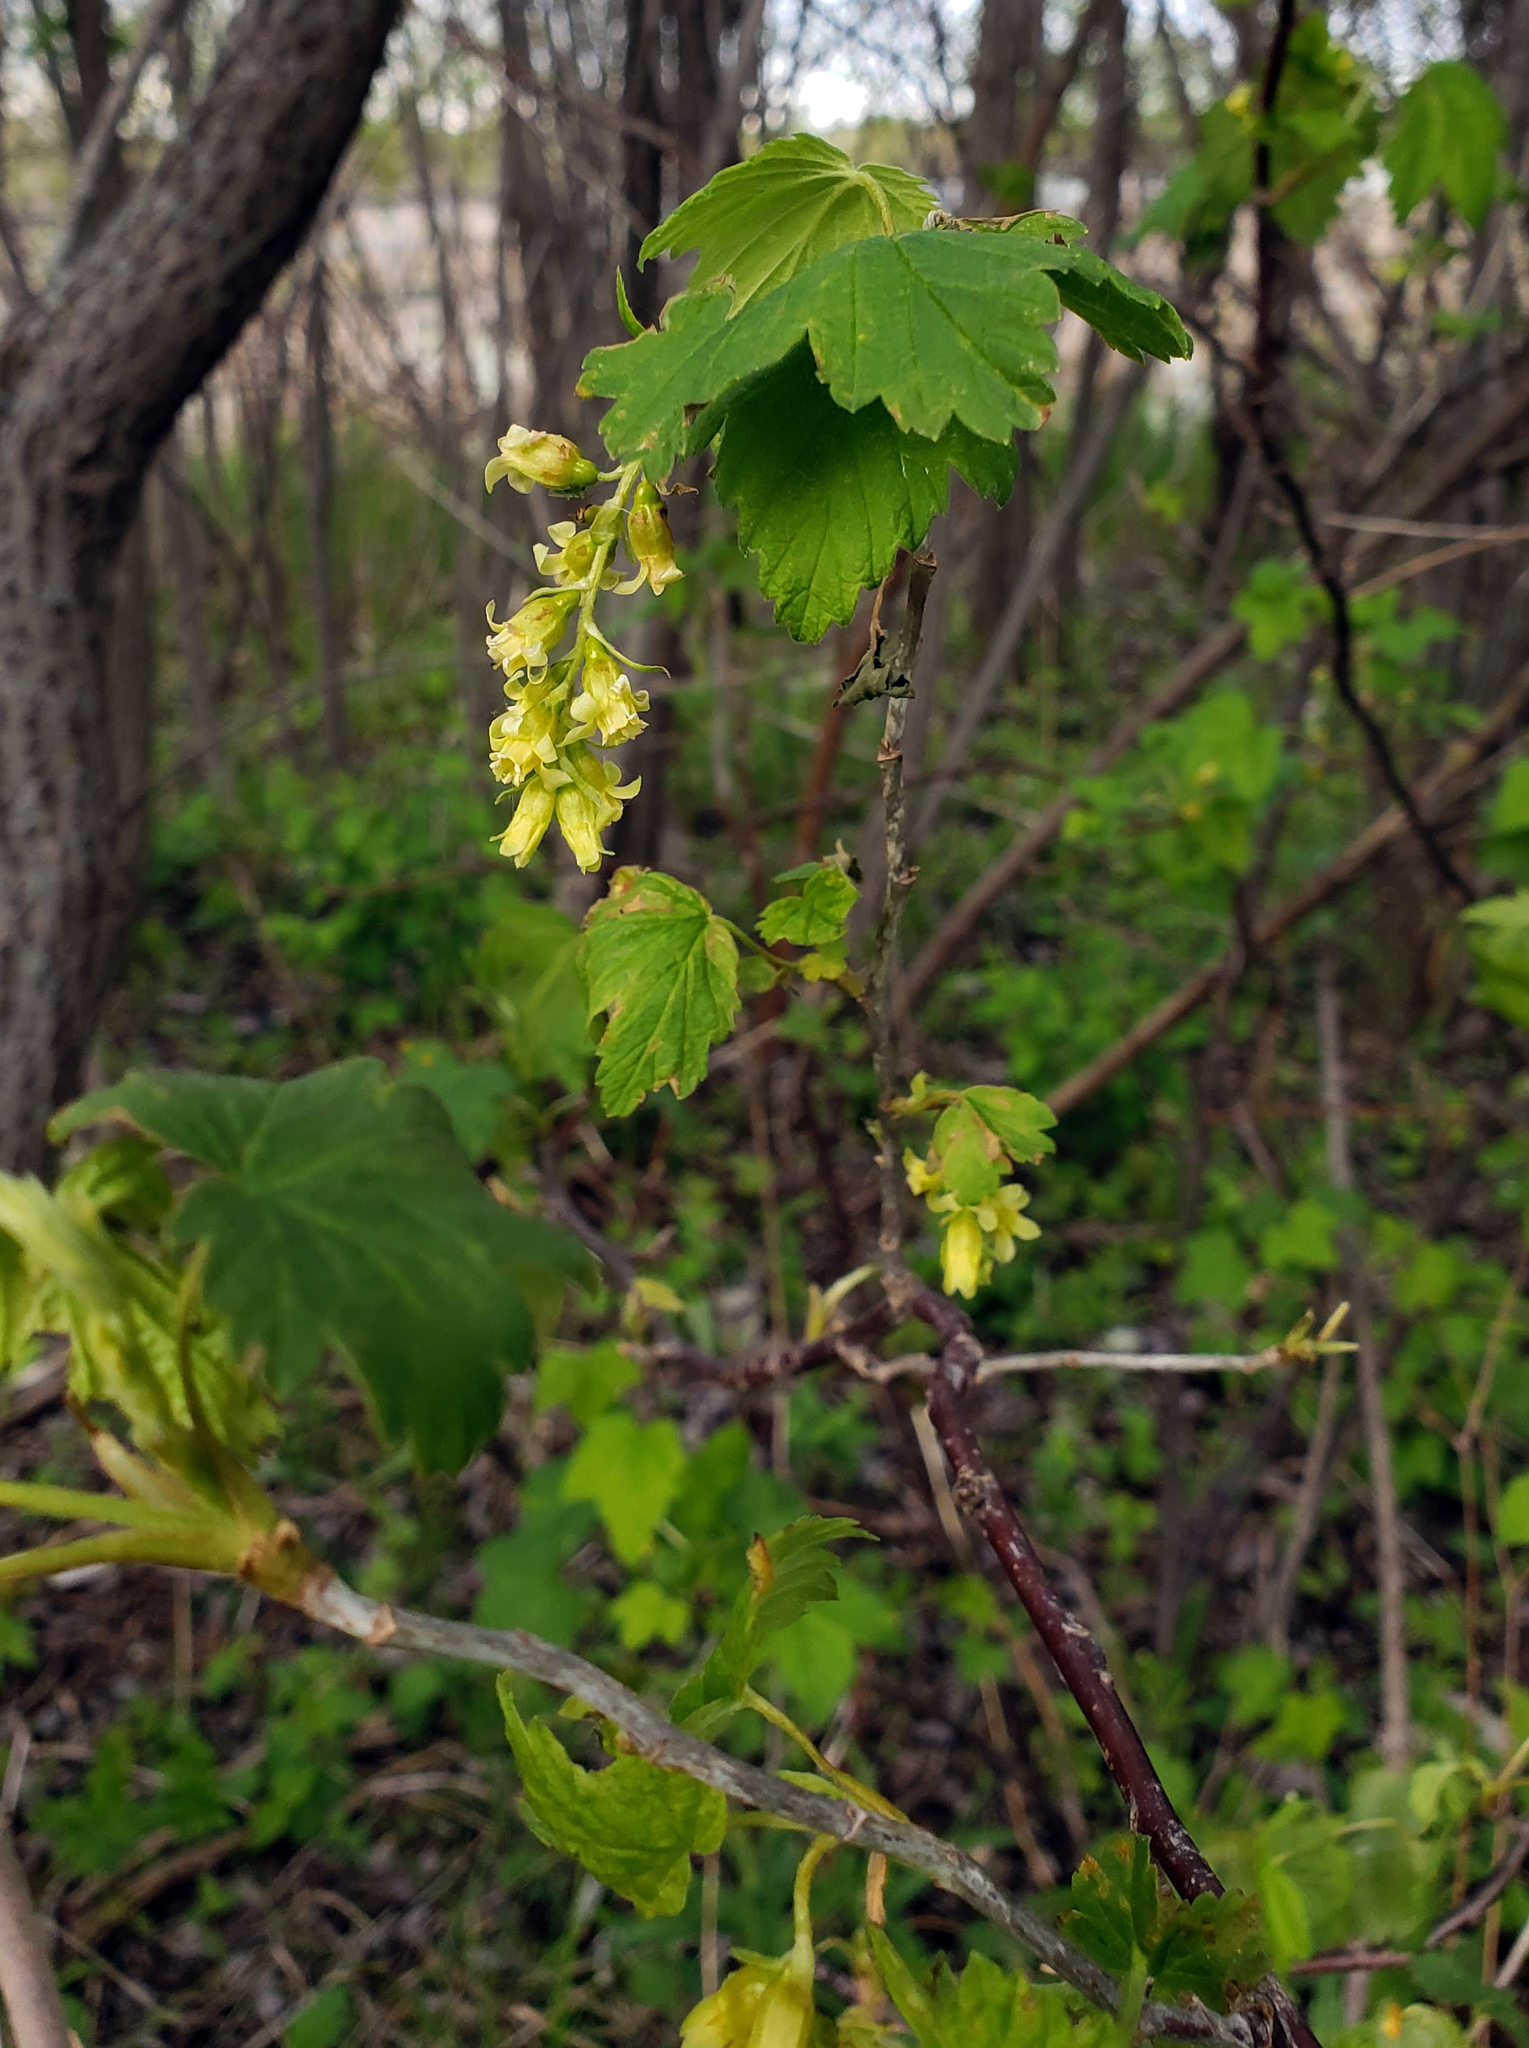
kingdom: Plantae
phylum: Tracheophyta
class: Magnoliopsida
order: Saxifragales
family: Grossulariaceae
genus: Ribes
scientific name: Ribes americanum
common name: American black currant
